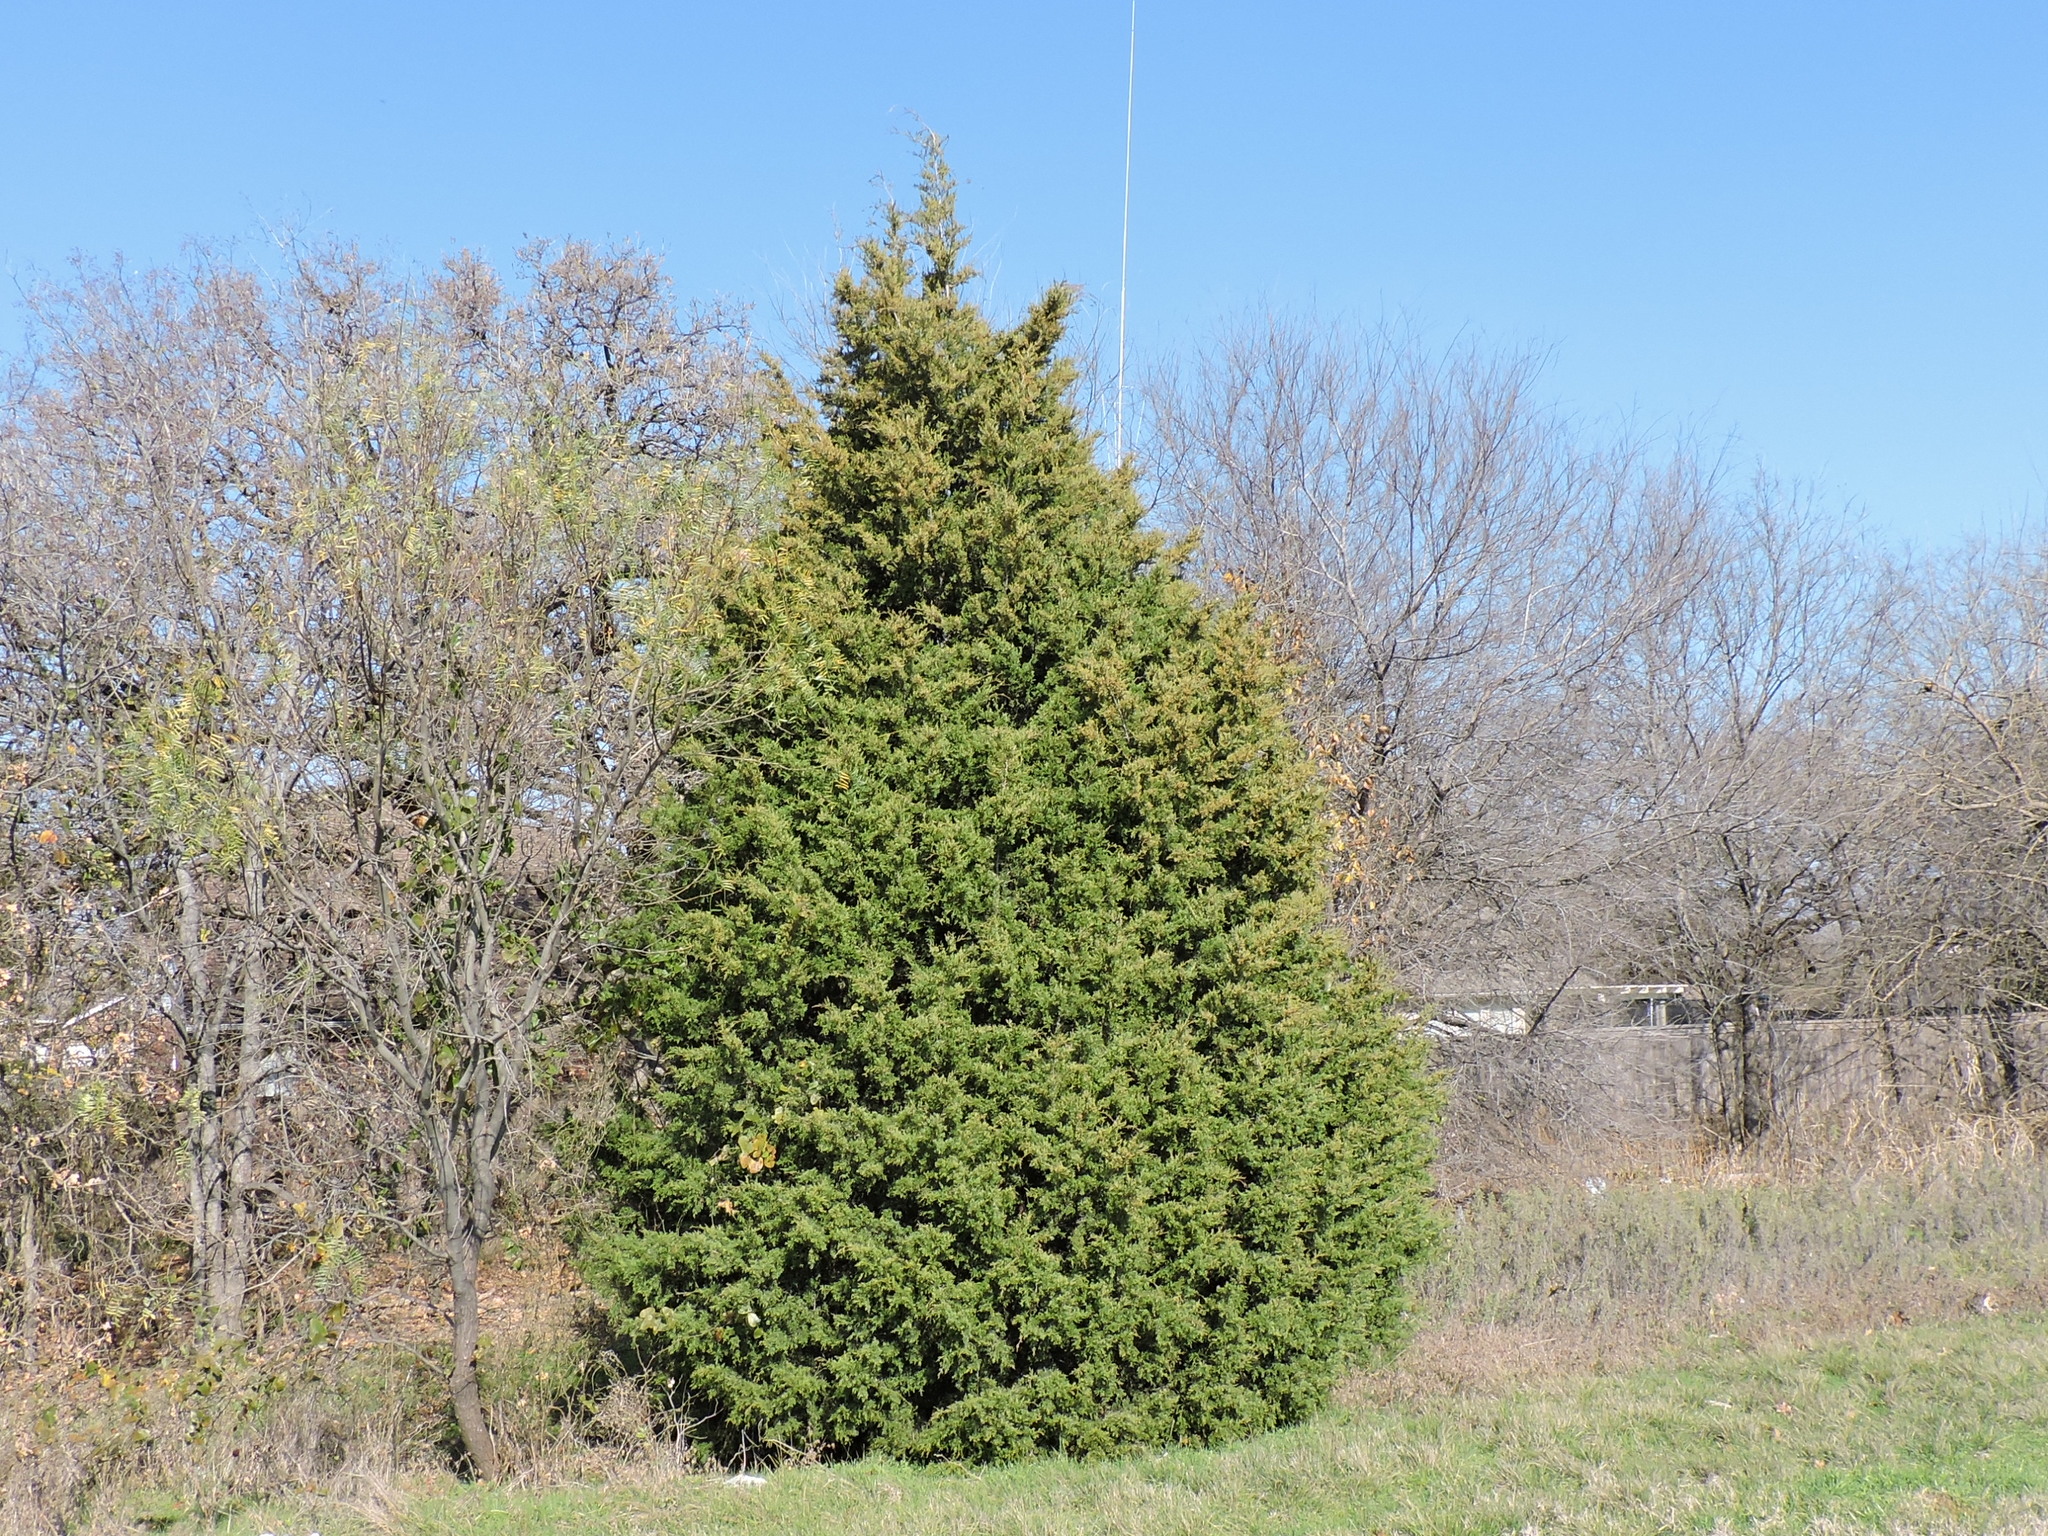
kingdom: Plantae
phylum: Tracheophyta
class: Pinopsida
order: Pinales
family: Cupressaceae
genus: Juniperus
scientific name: Juniperus virginiana
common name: Red juniper
